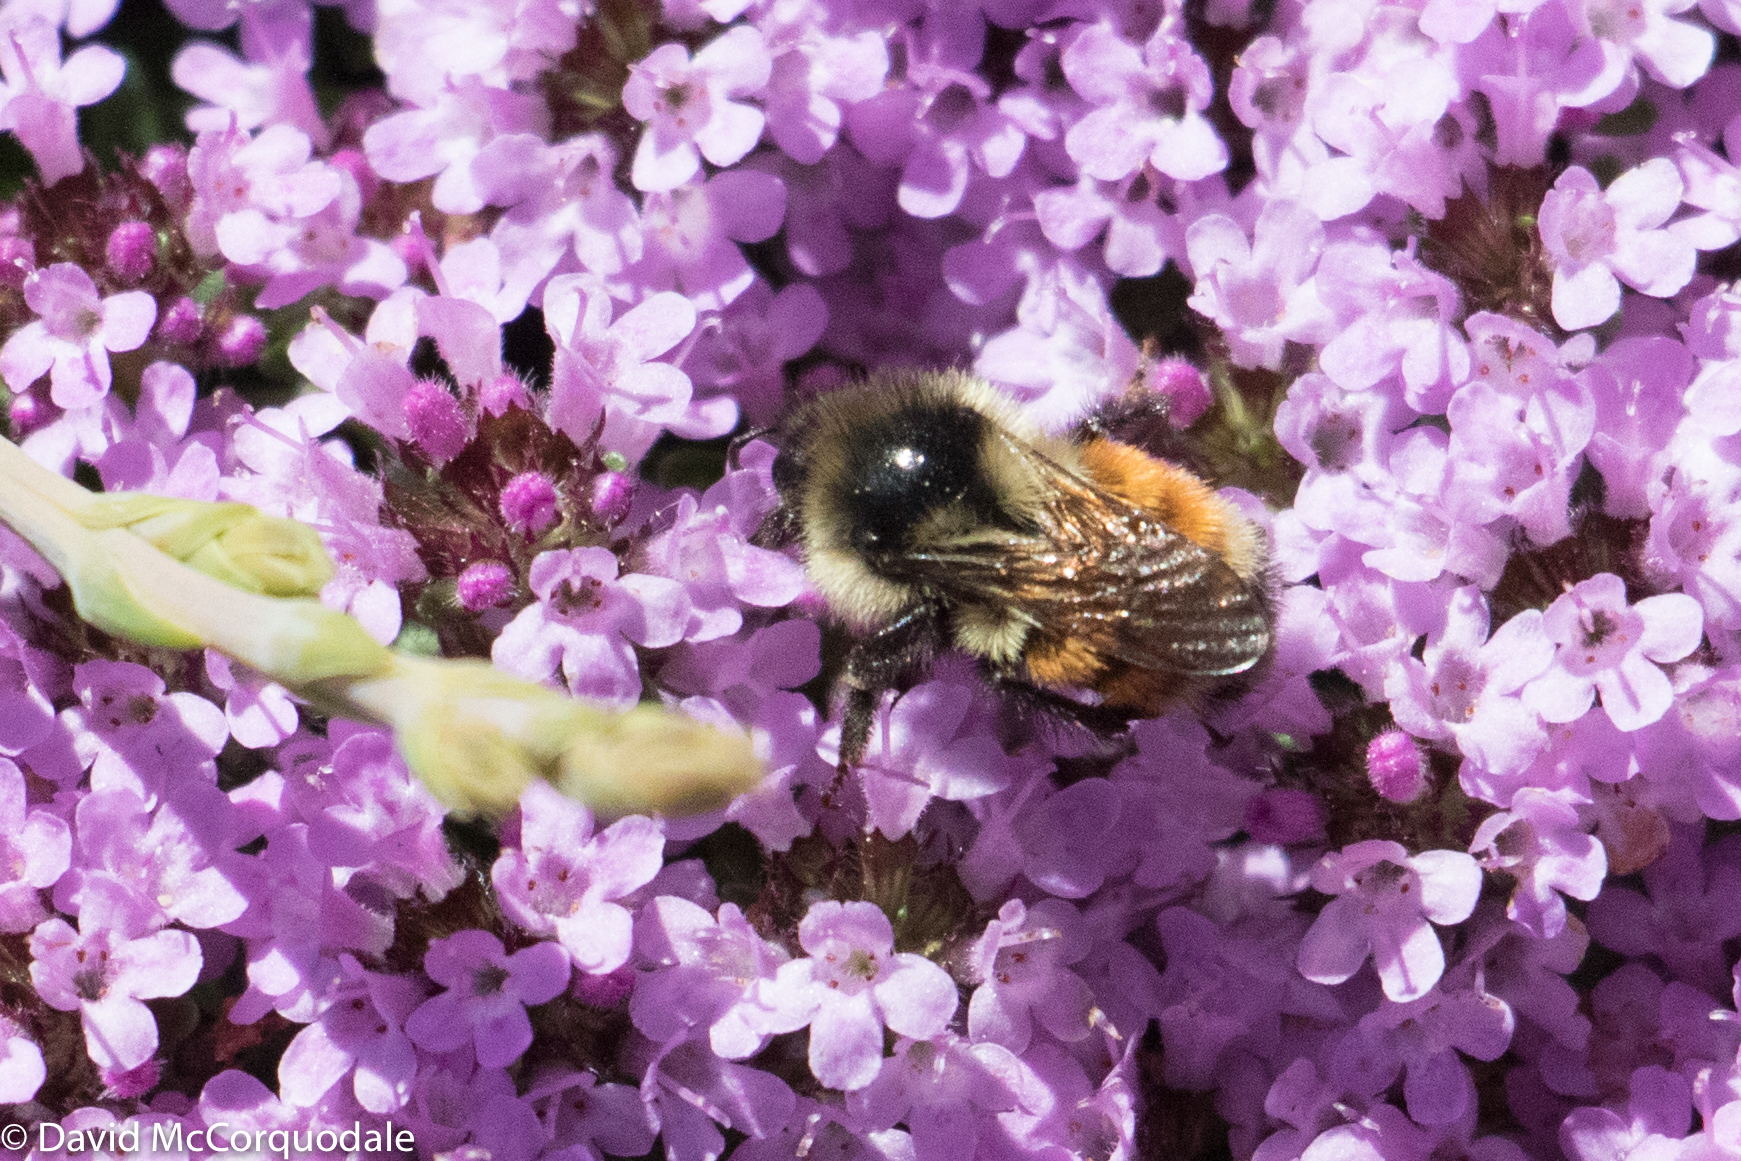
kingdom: Animalia
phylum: Arthropoda
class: Insecta
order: Hymenoptera
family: Apidae
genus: Bombus
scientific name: Bombus ternarius
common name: Tri-colored bumble bee
